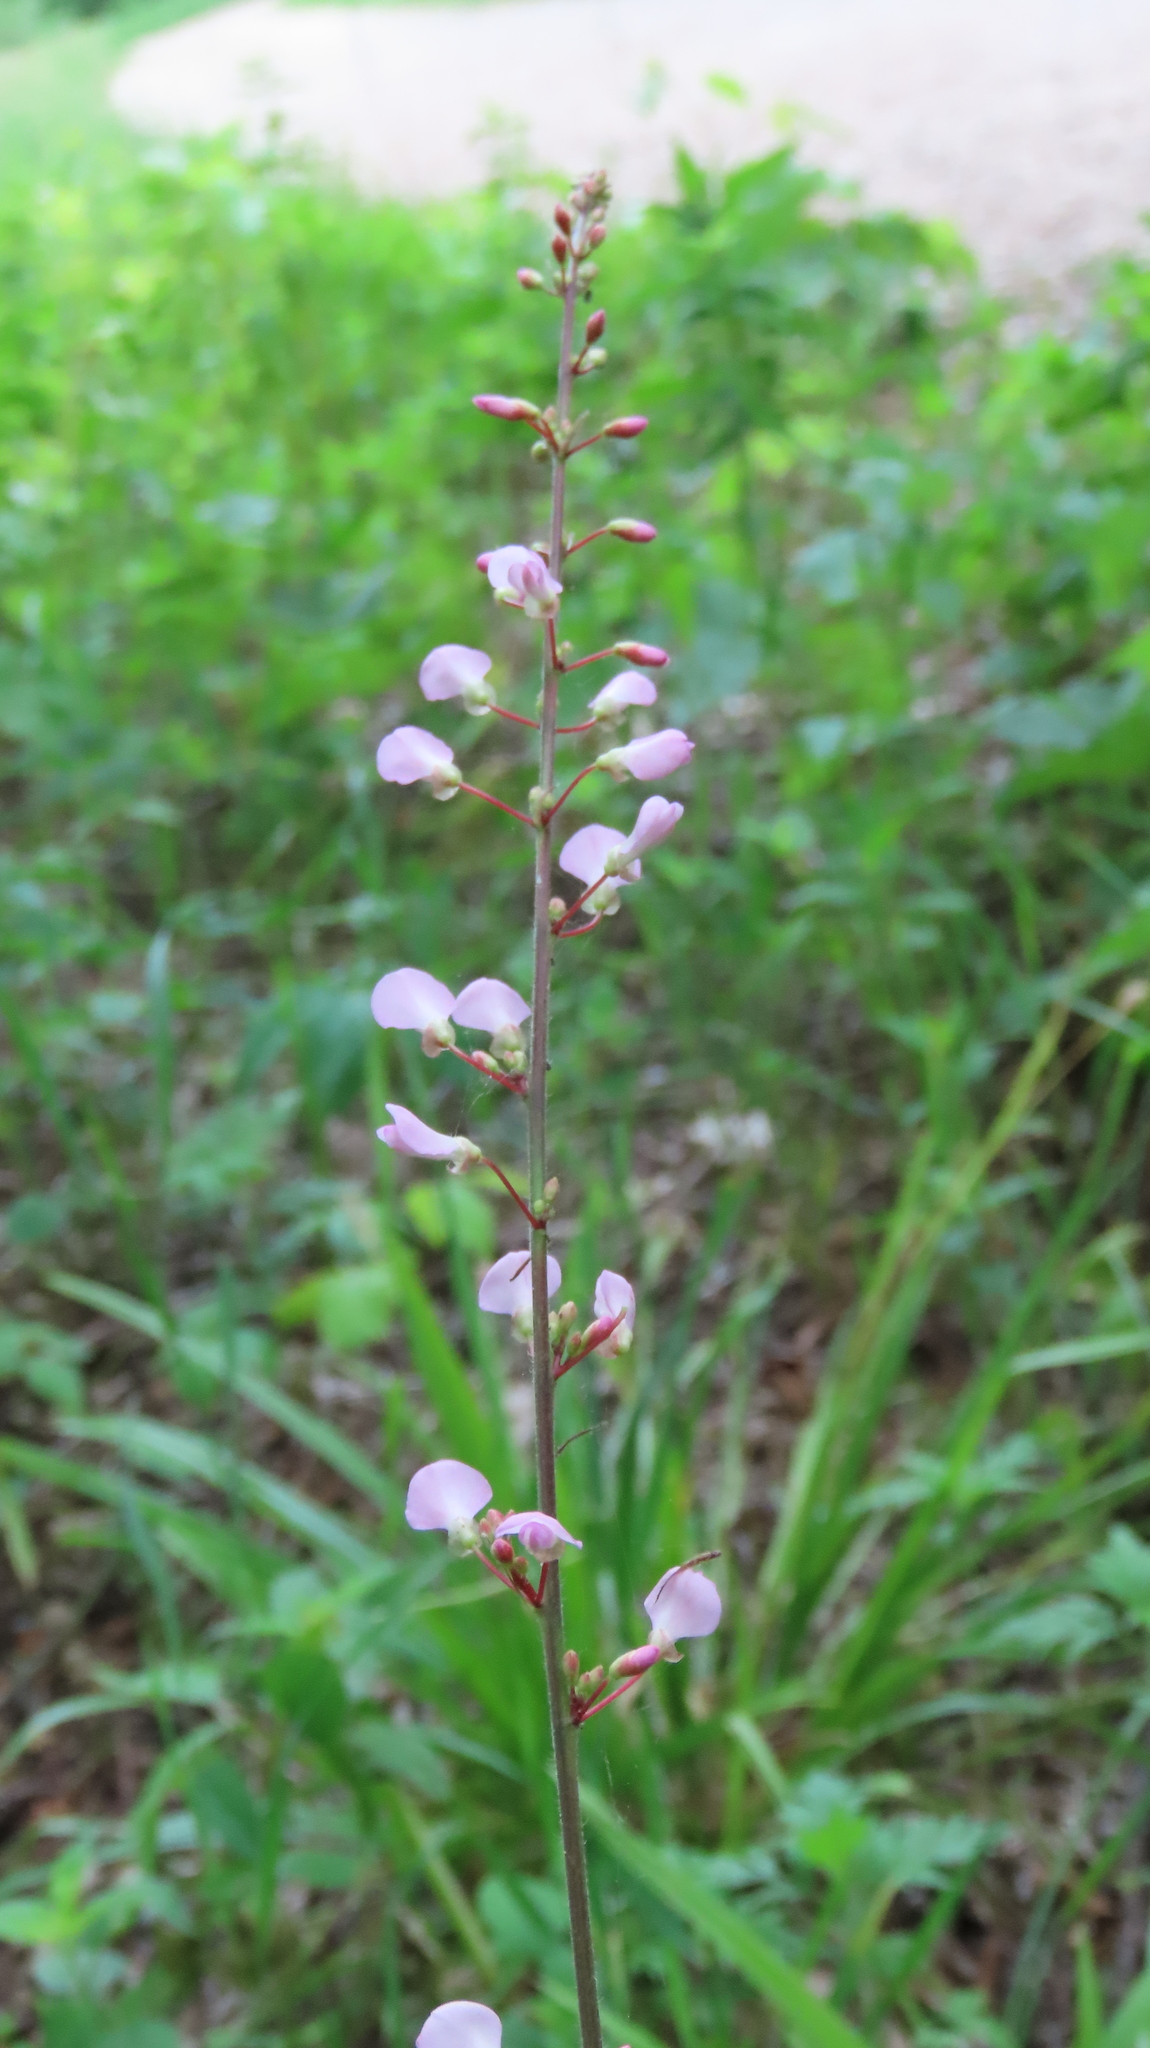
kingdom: Plantae
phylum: Tracheophyta
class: Magnoliopsida
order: Fabales
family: Fabaceae
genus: Hylodesmum
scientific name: Hylodesmum glutinosum
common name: Clustered-leaved tick-trefoil
